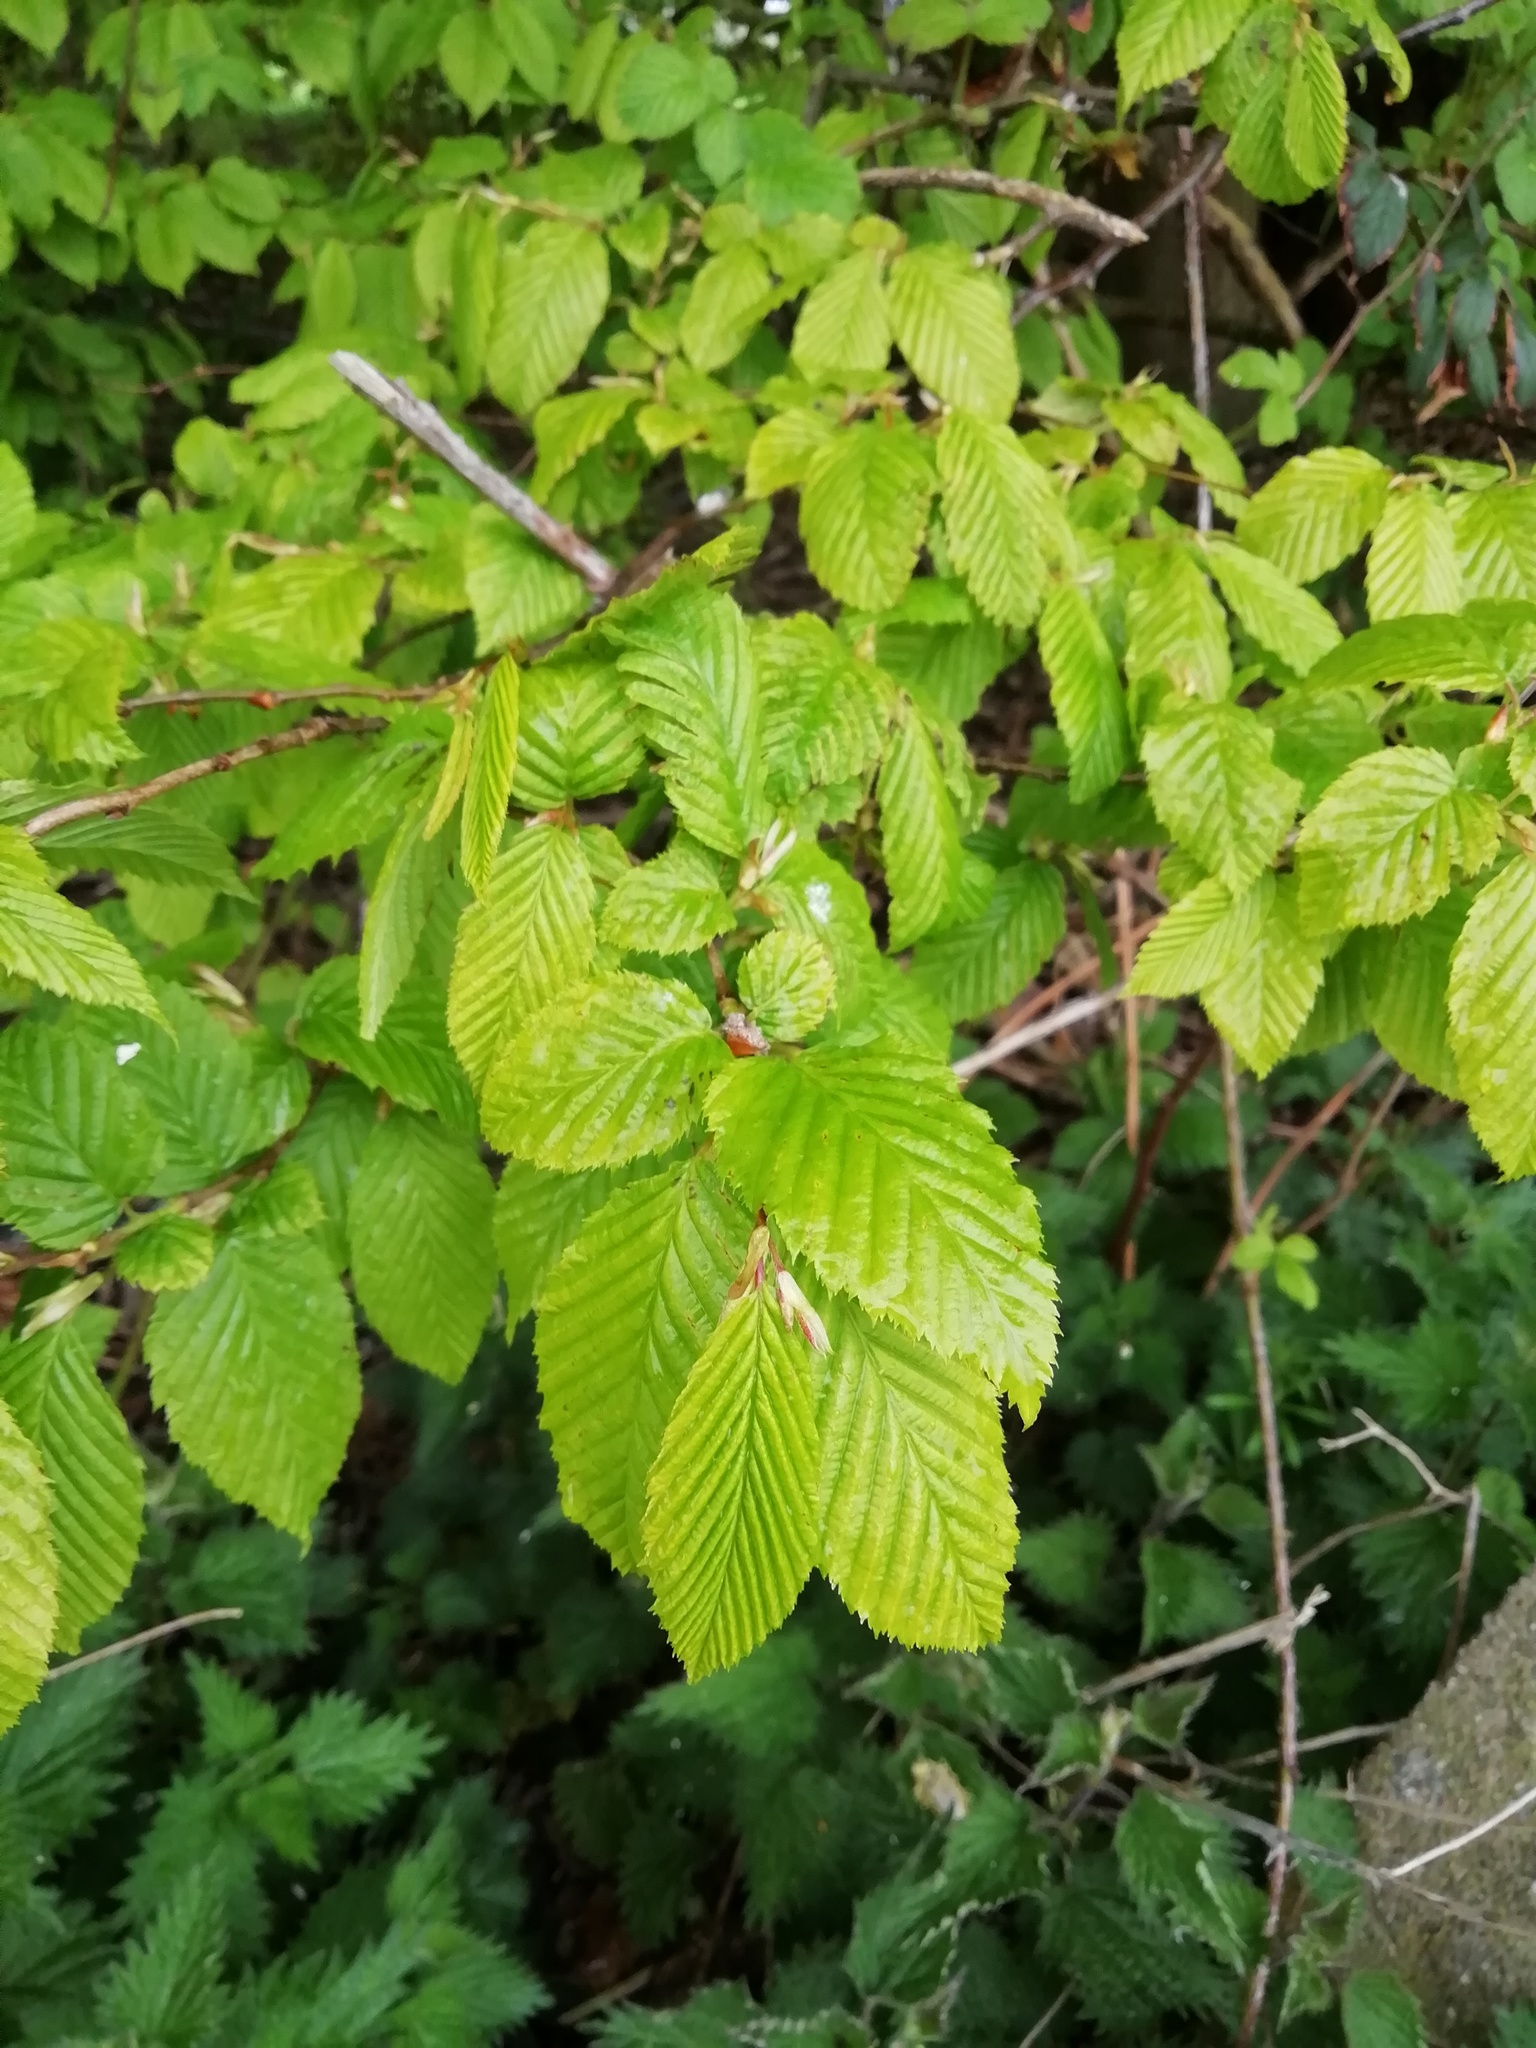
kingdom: Plantae
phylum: Tracheophyta
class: Magnoliopsida
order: Fagales
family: Betulaceae
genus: Carpinus
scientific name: Carpinus betulus
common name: Hornbeam
